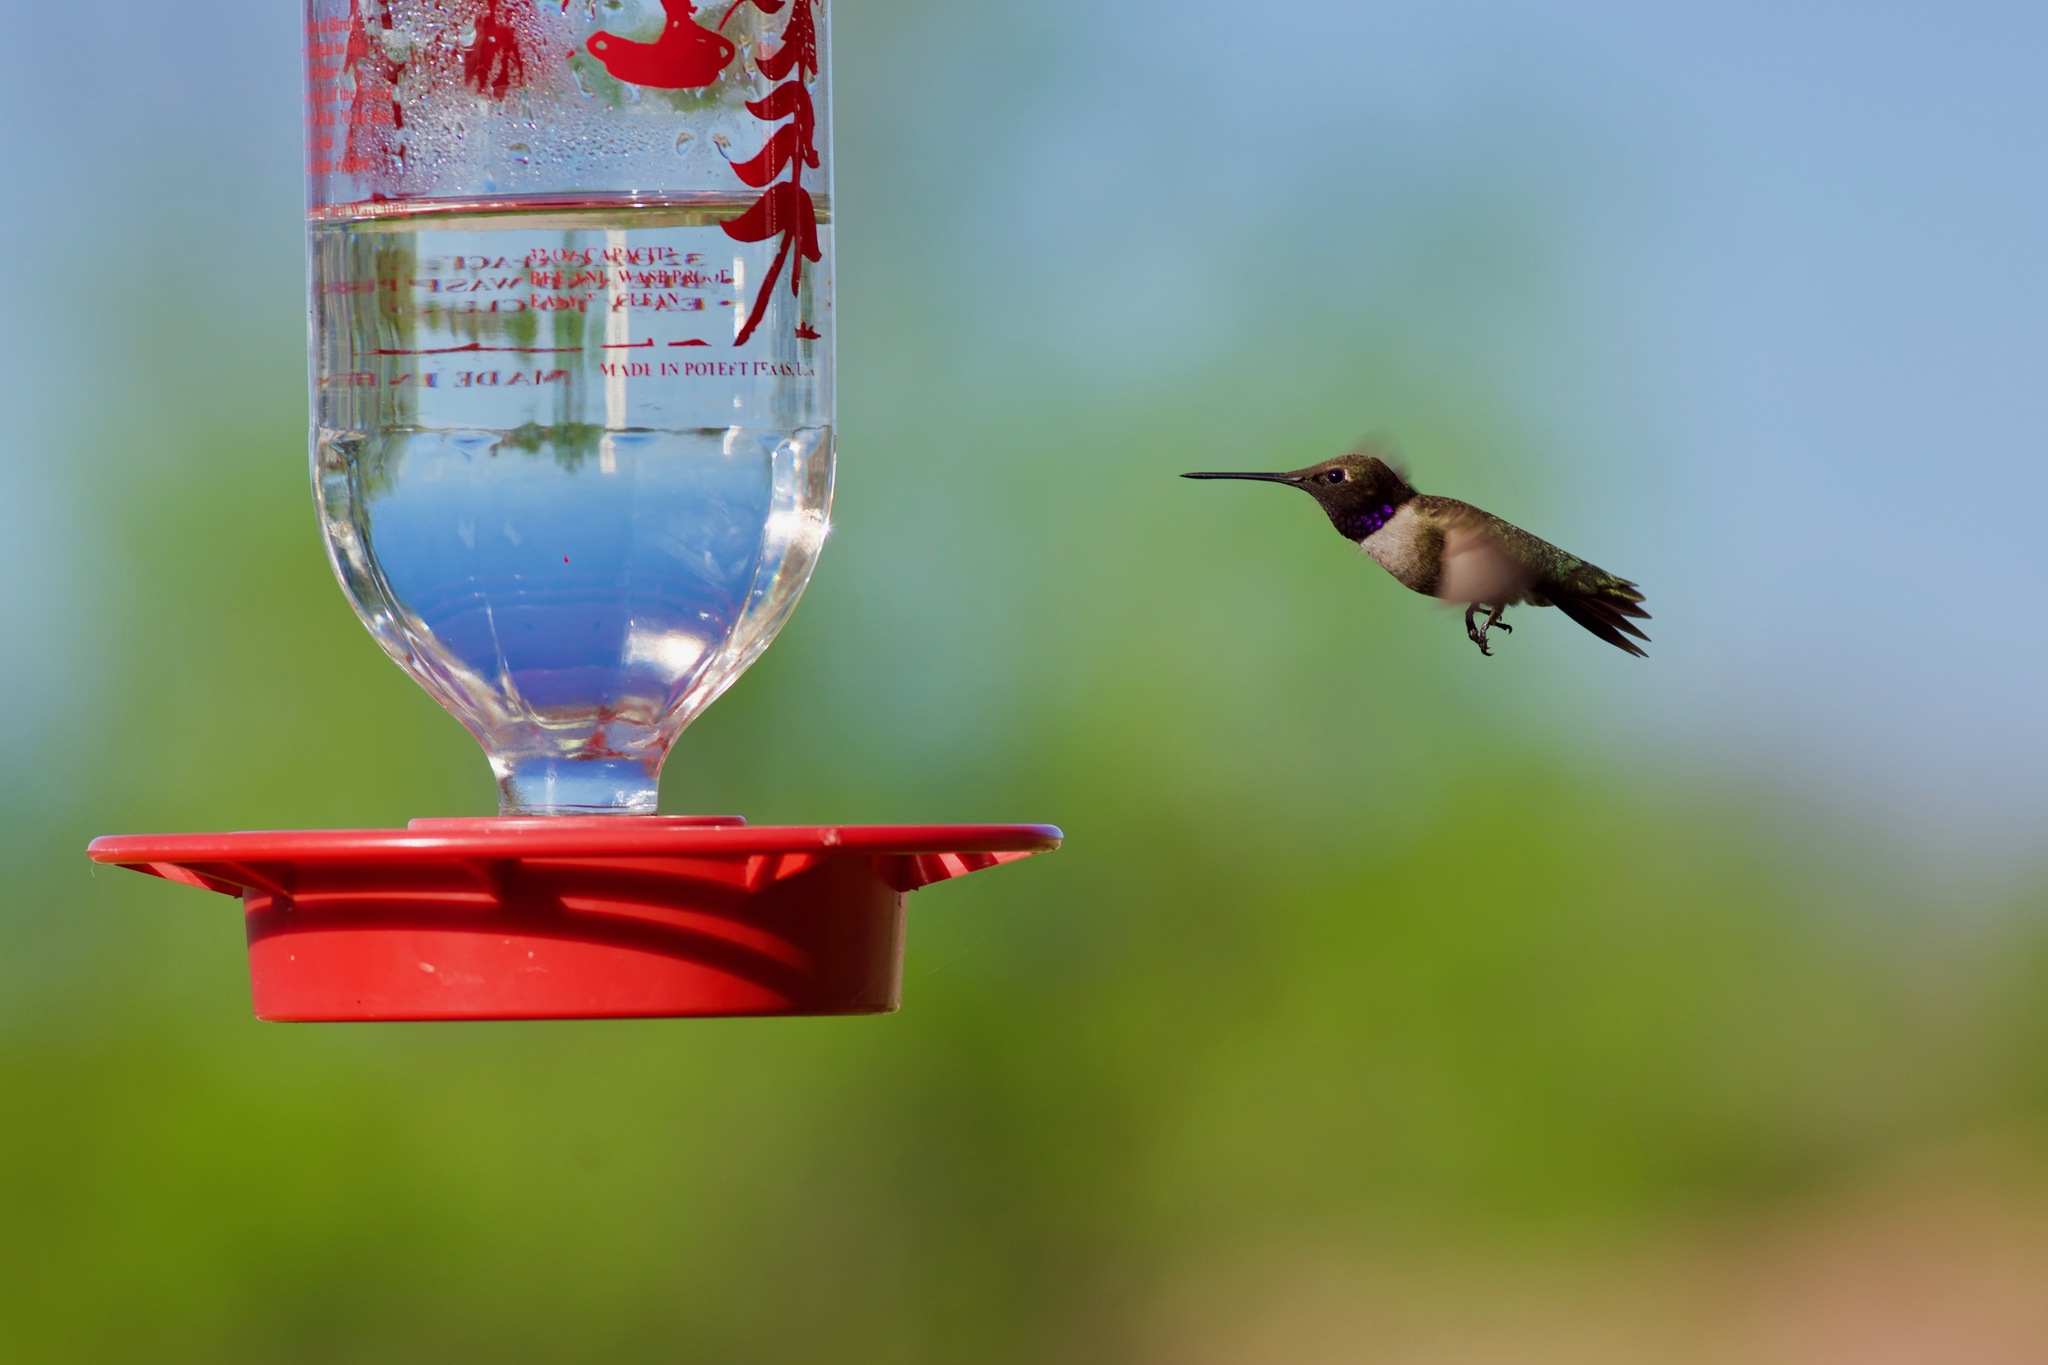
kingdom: Animalia
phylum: Chordata
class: Aves
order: Apodiformes
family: Trochilidae
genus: Archilochus
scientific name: Archilochus alexandri
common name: Black-chinned hummingbird
